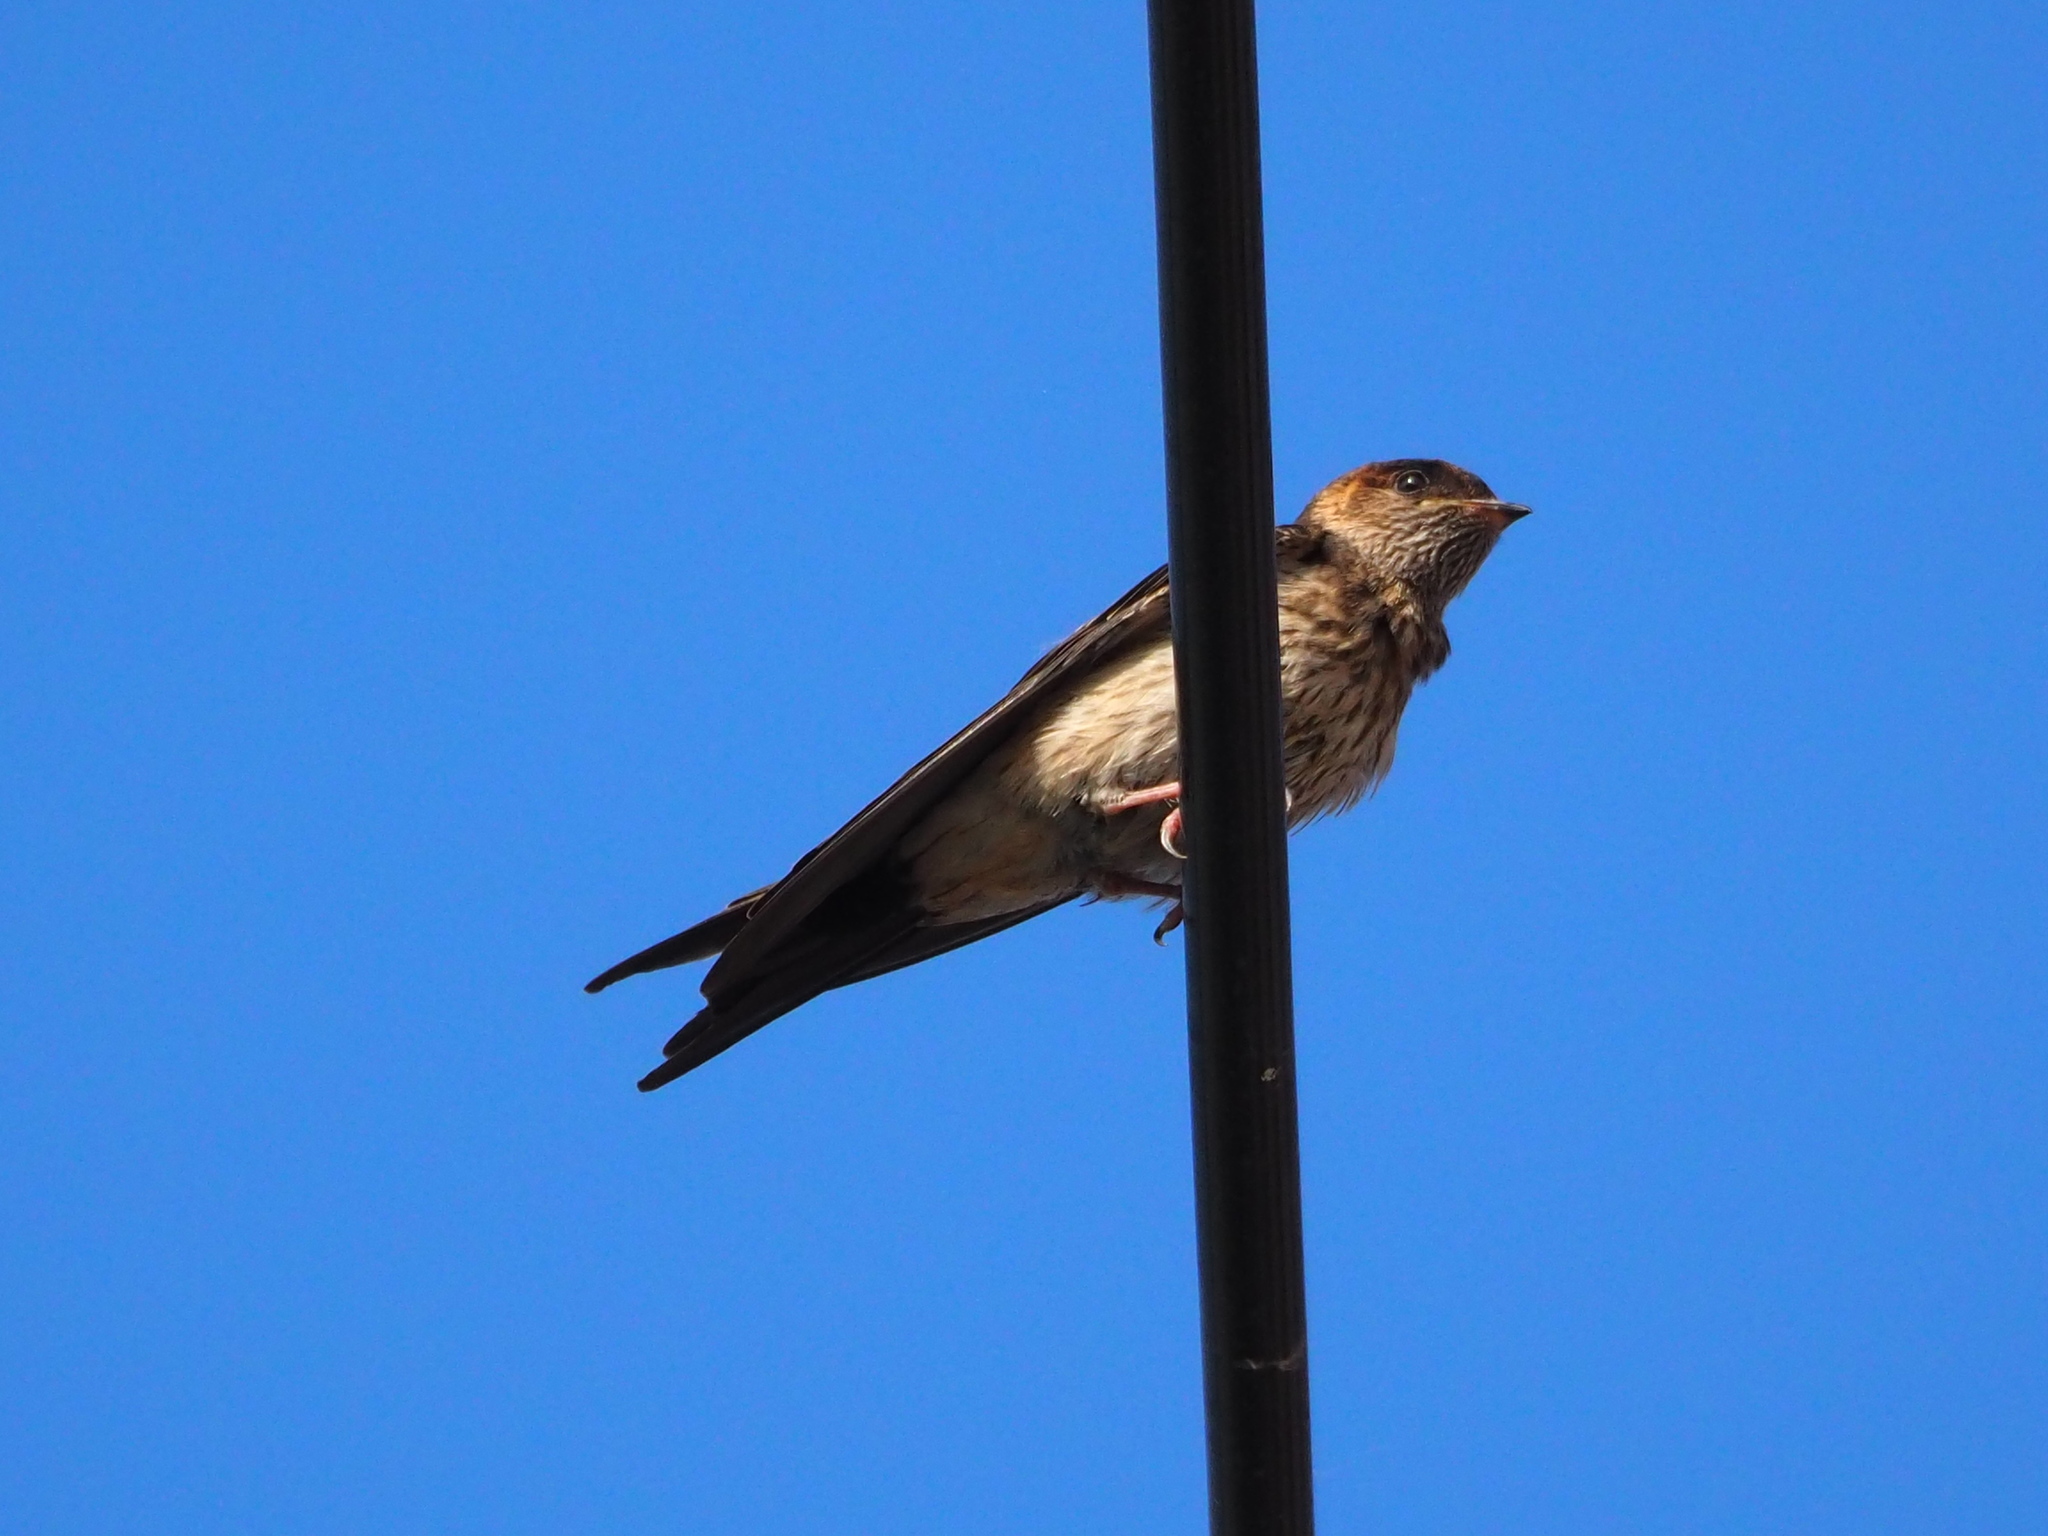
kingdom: Animalia
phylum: Chordata
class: Aves
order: Passeriformes
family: Hirundinidae
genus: Cecropis
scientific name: Cecropis striolata
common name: Striated swallow
